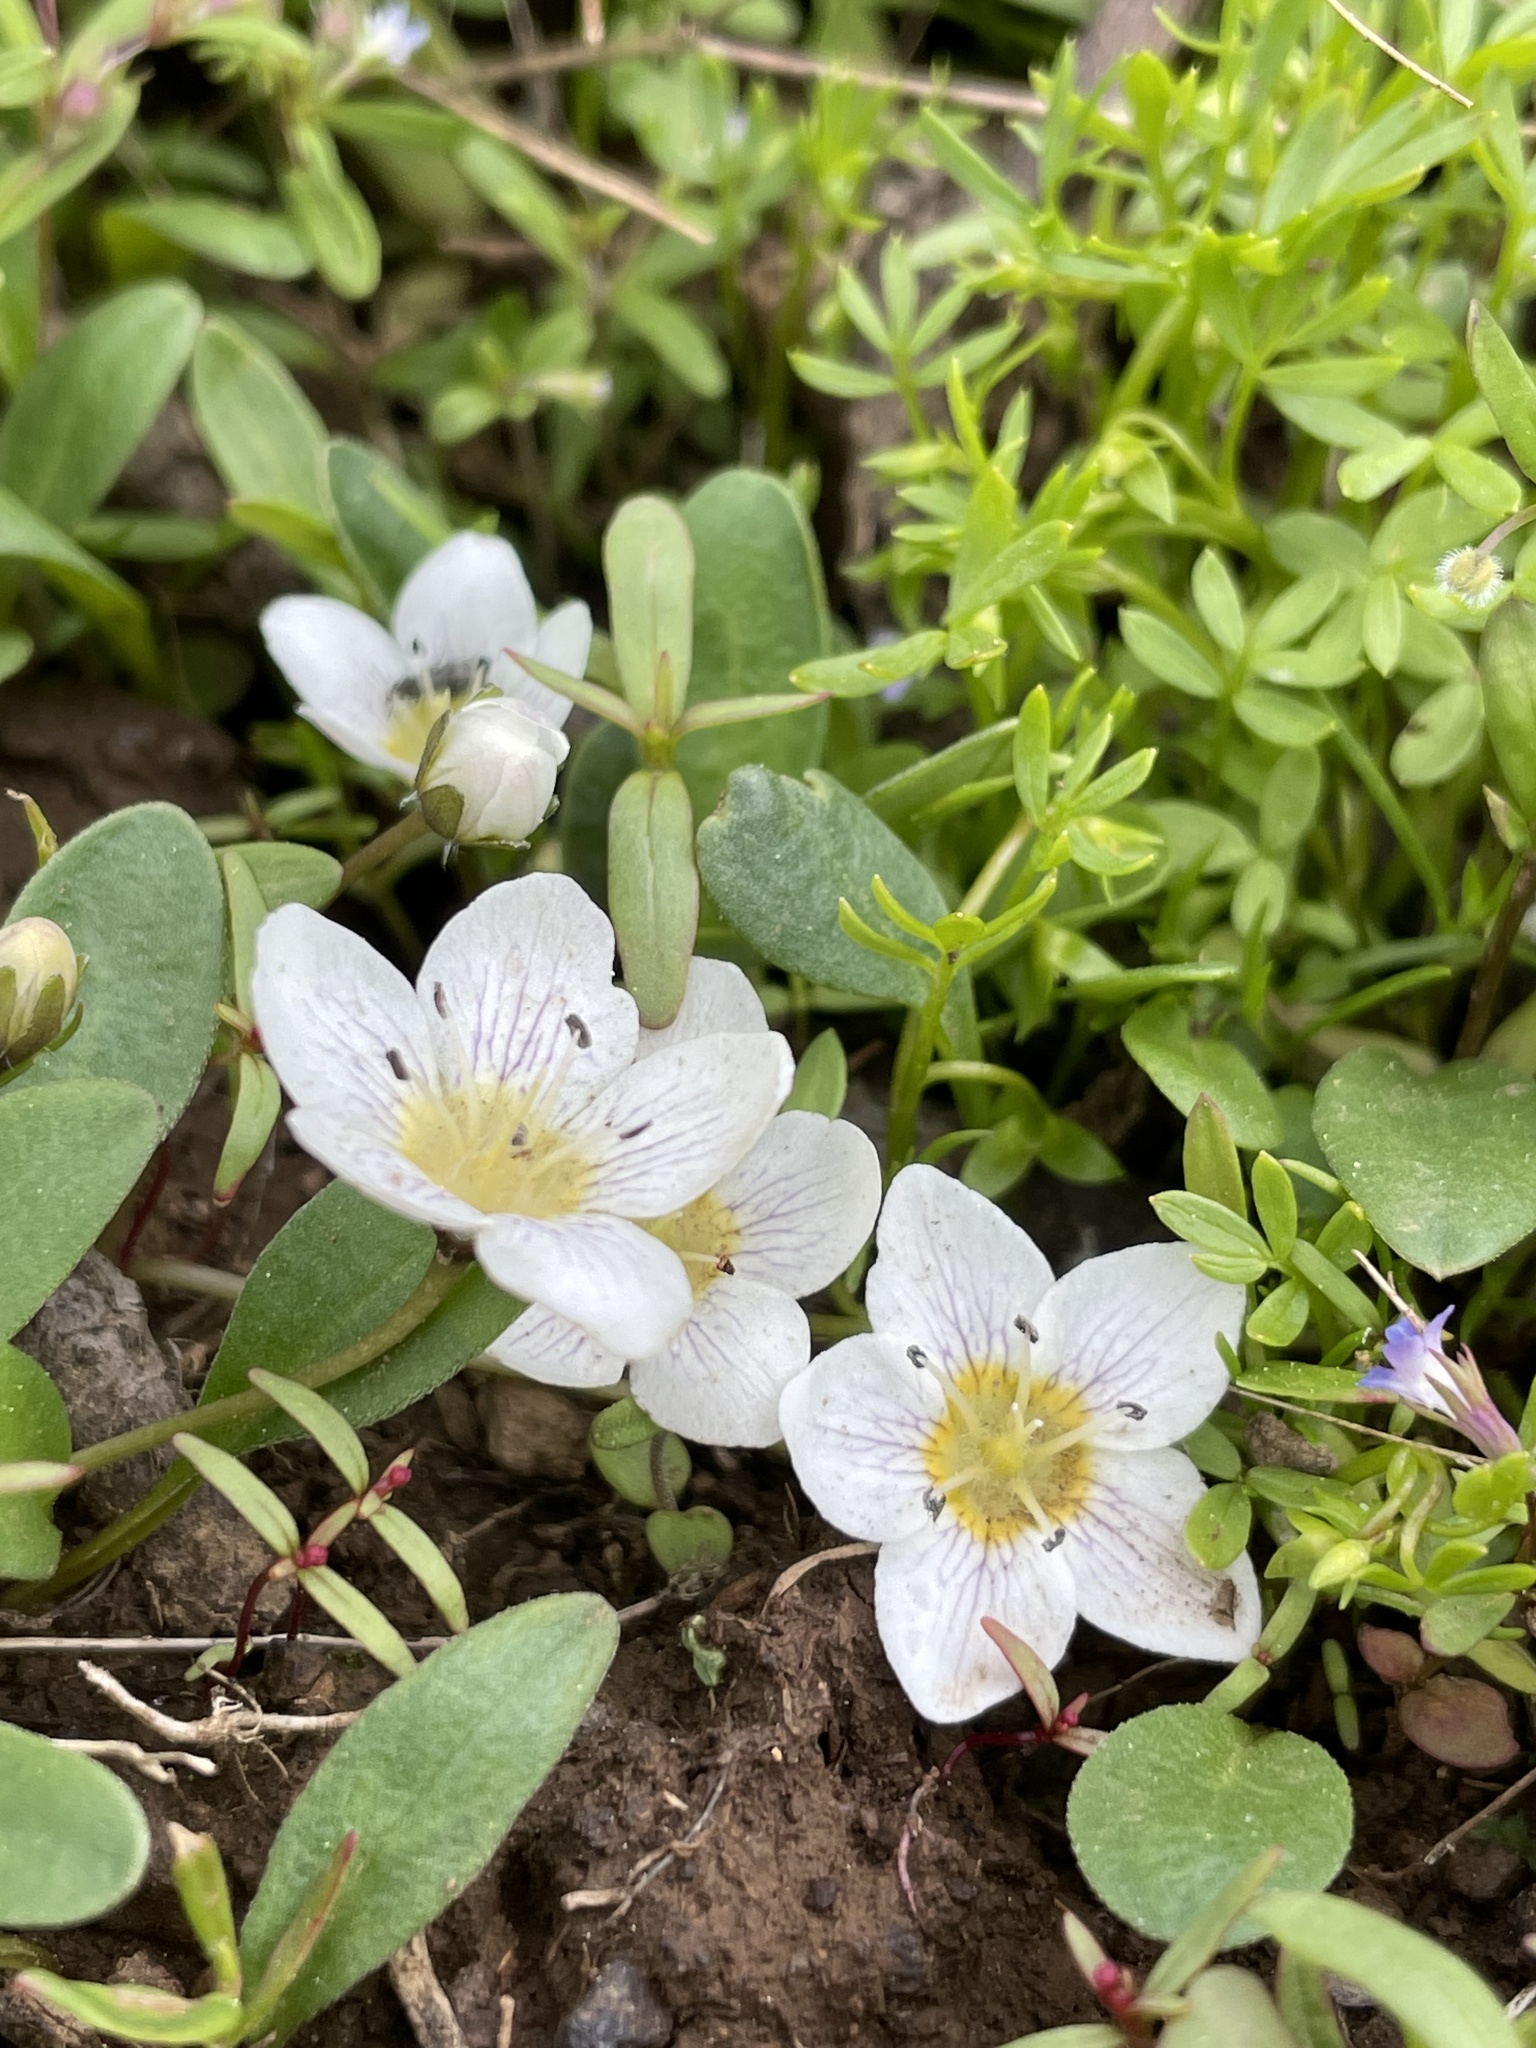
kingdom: Plantae
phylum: Tracheophyta
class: Magnoliopsida
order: Boraginales
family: Hydrophyllaceae
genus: Hesperochiron
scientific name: Hesperochiron pumilus
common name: Dwarf hesperochiron
